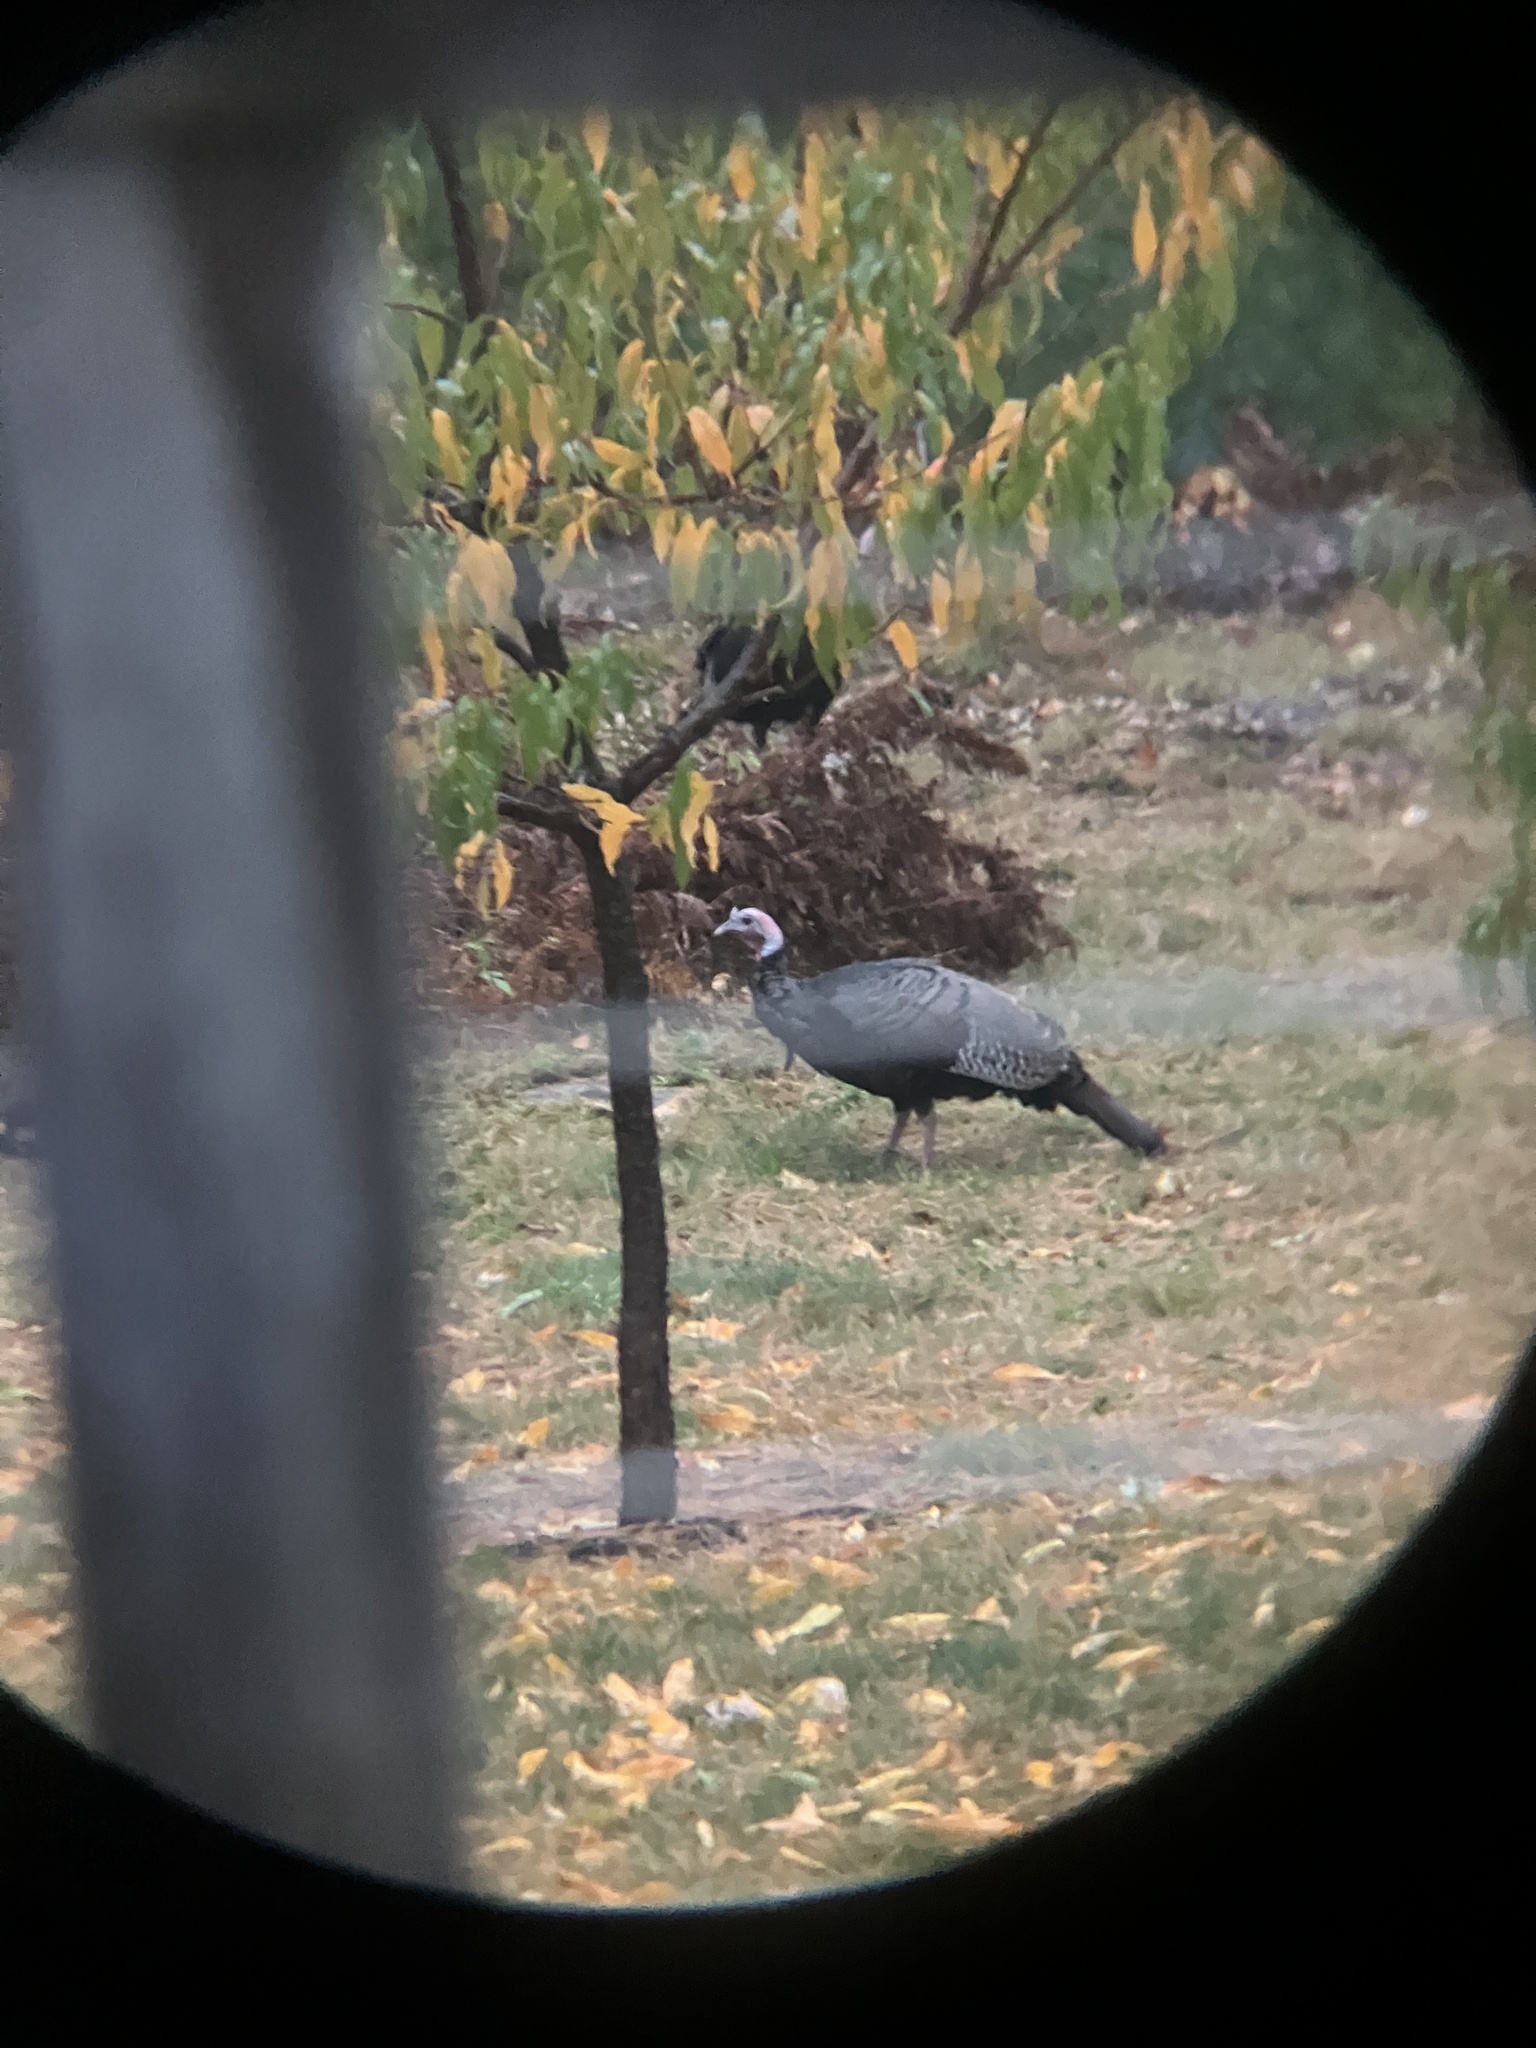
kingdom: Animalia
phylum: Chordata
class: Aves
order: Galliformes
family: Phasianidae
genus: Meleagris
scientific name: Meleagris gallopavo
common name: Wild turkey
